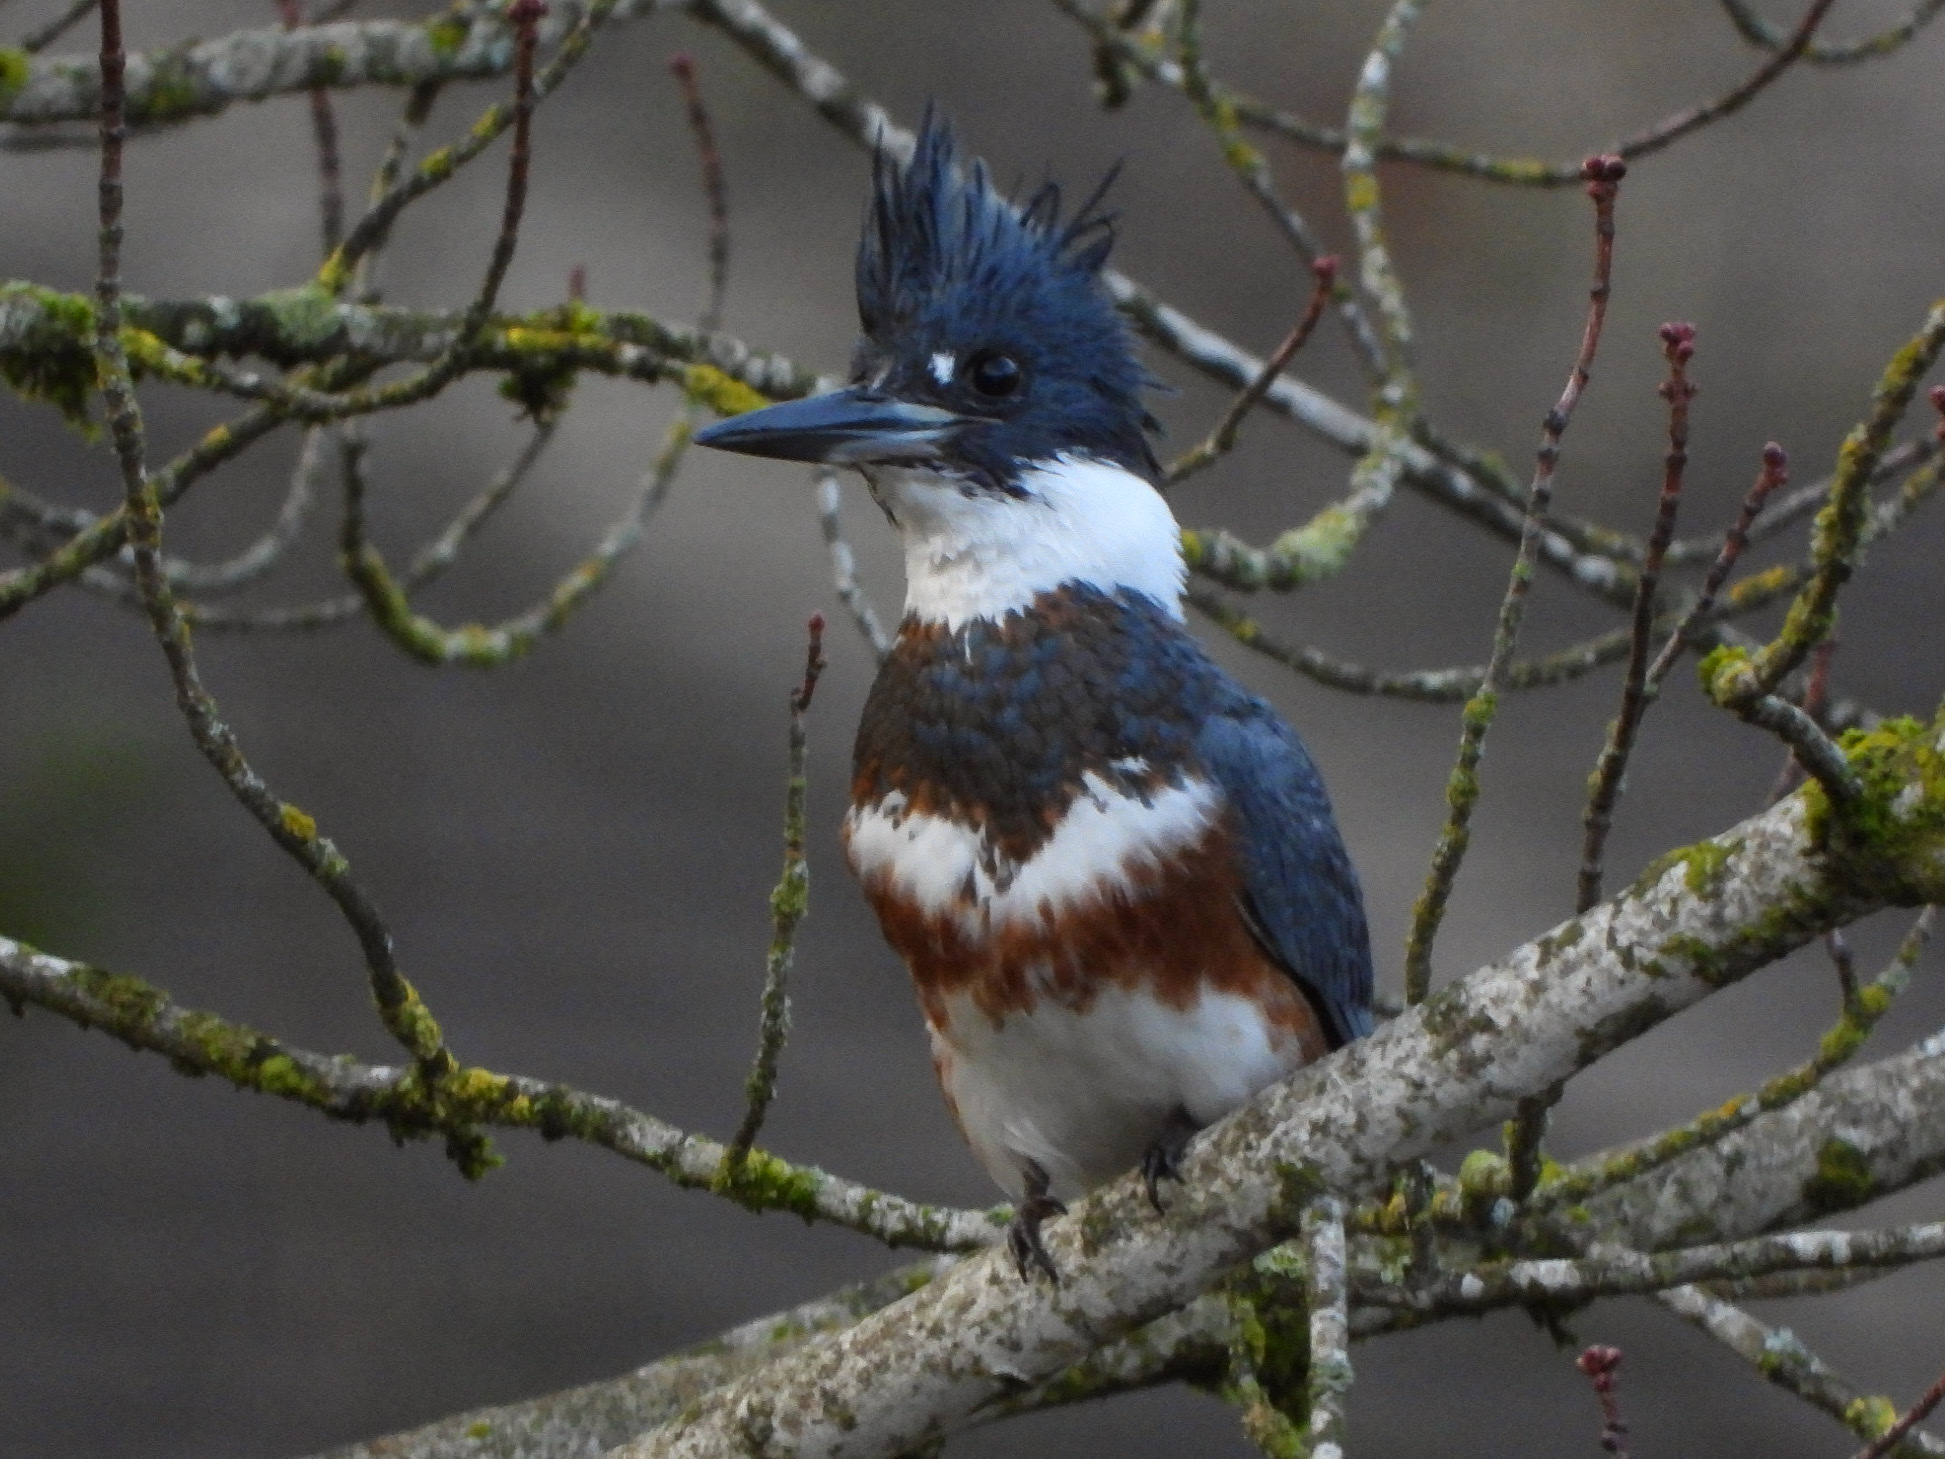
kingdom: Animalia
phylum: Chordata
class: Aves
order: Coraciiformes
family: Alcedinidae
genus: Megaceryle
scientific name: Megaceryle alcyon
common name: Belted kingfisher
